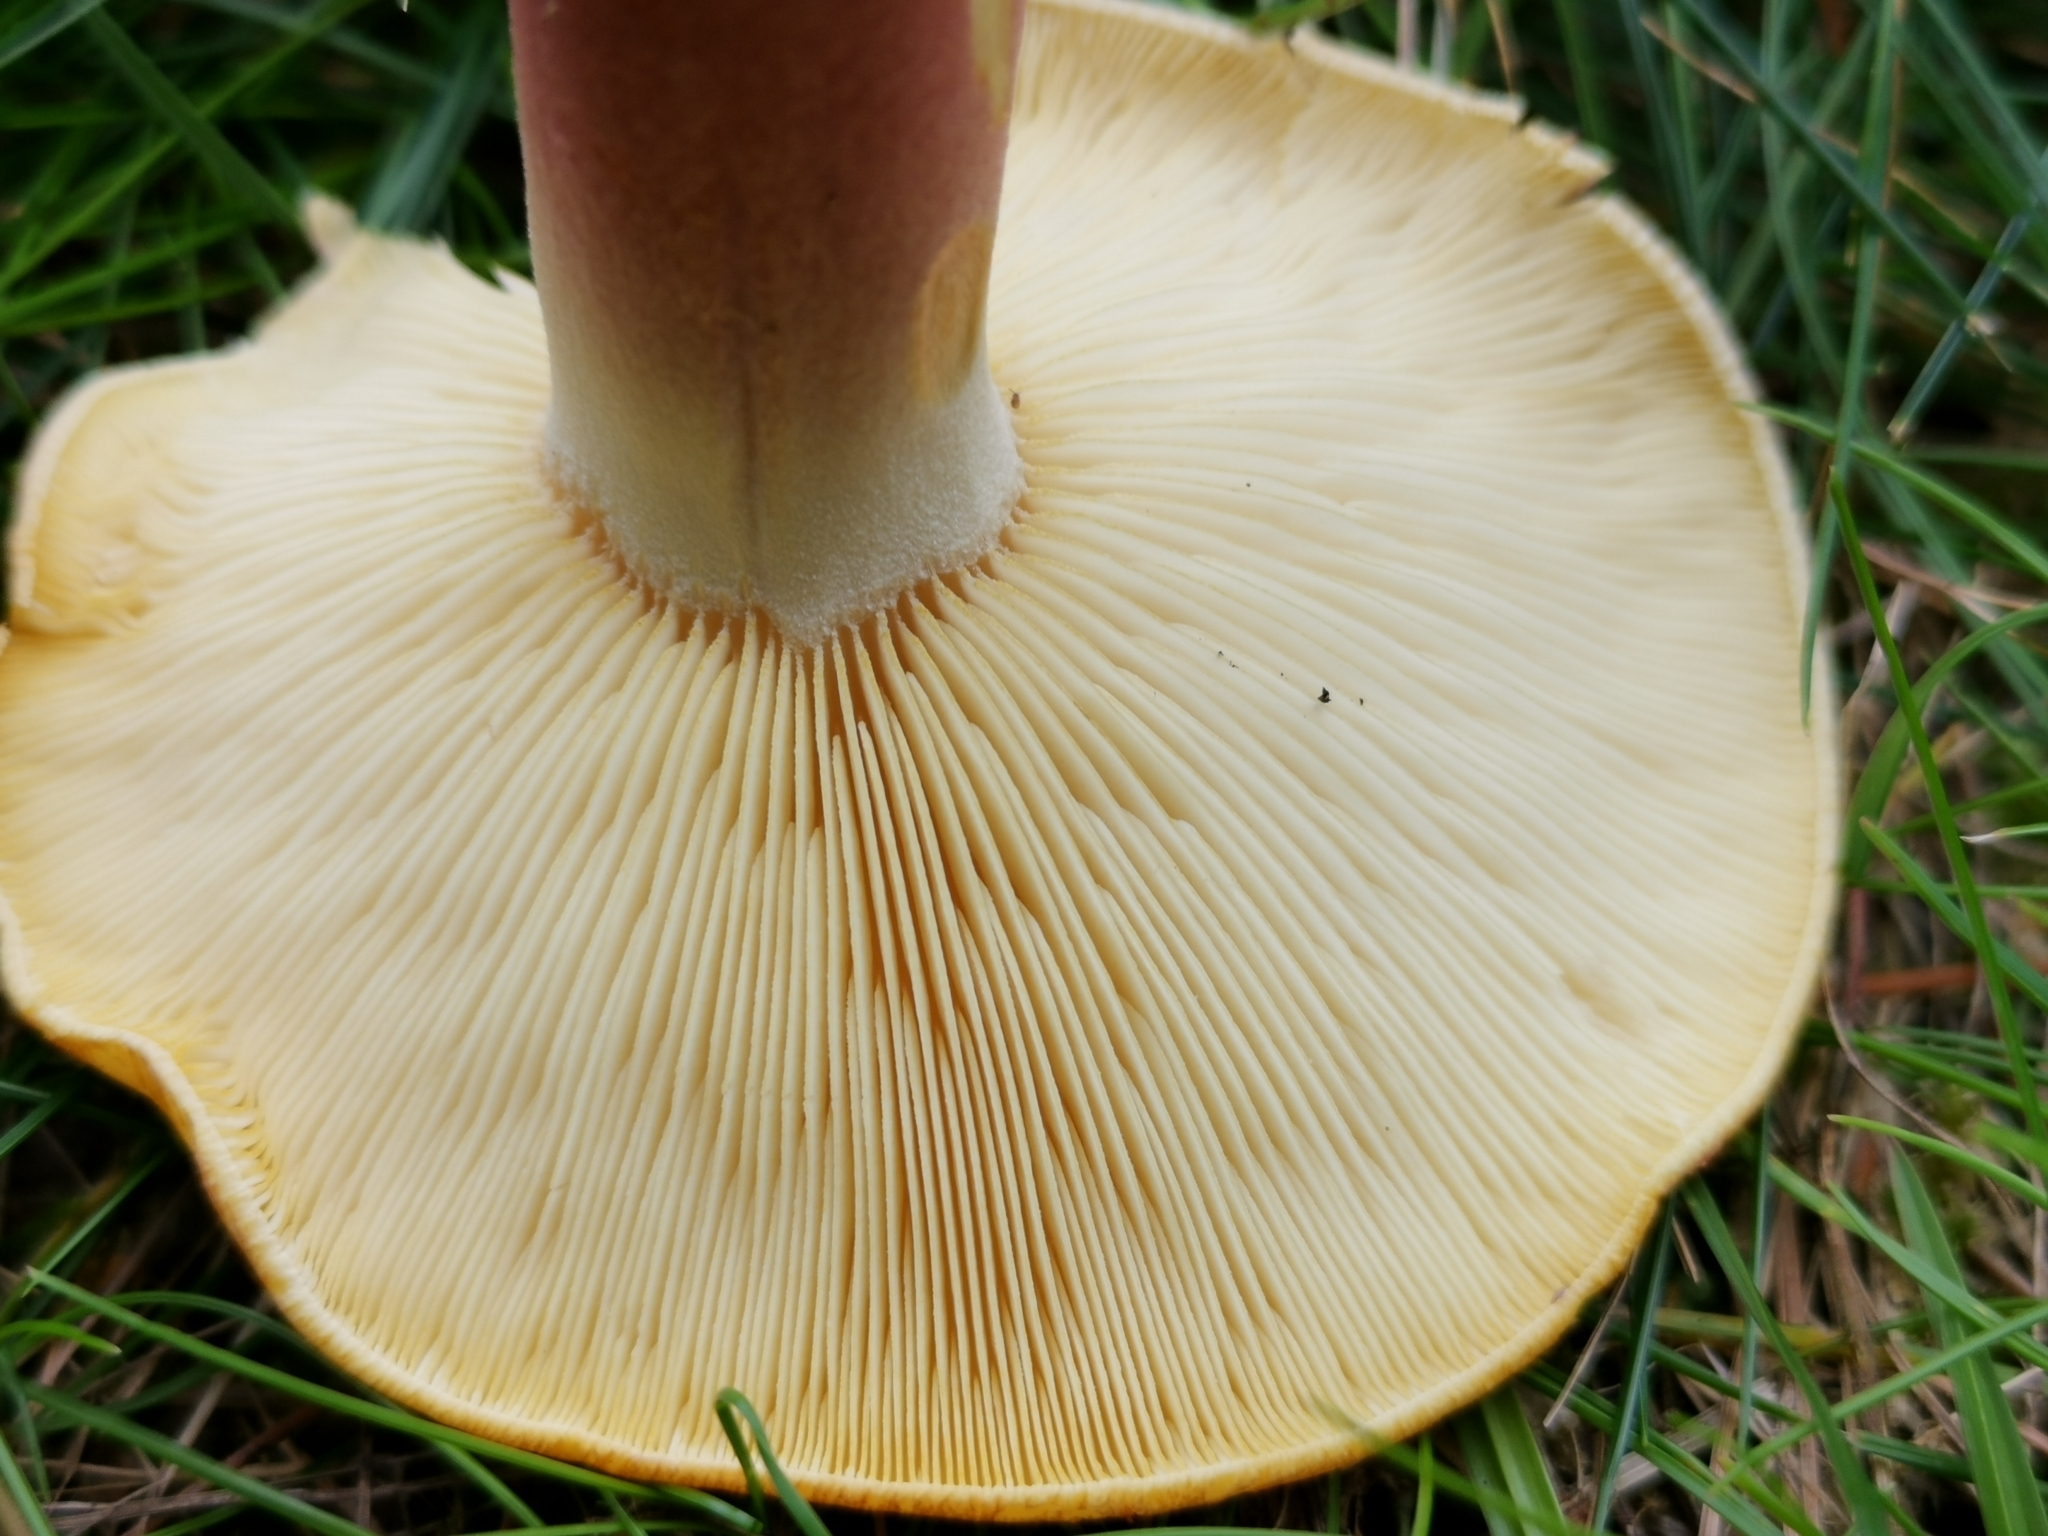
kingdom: Fungi
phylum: Basidiomycota
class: Agaricomycetes
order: Agaricales
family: Tricholomataceae
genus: Tricholomopsis
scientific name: Tricholomopsis rutilans
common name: Plums and custard
